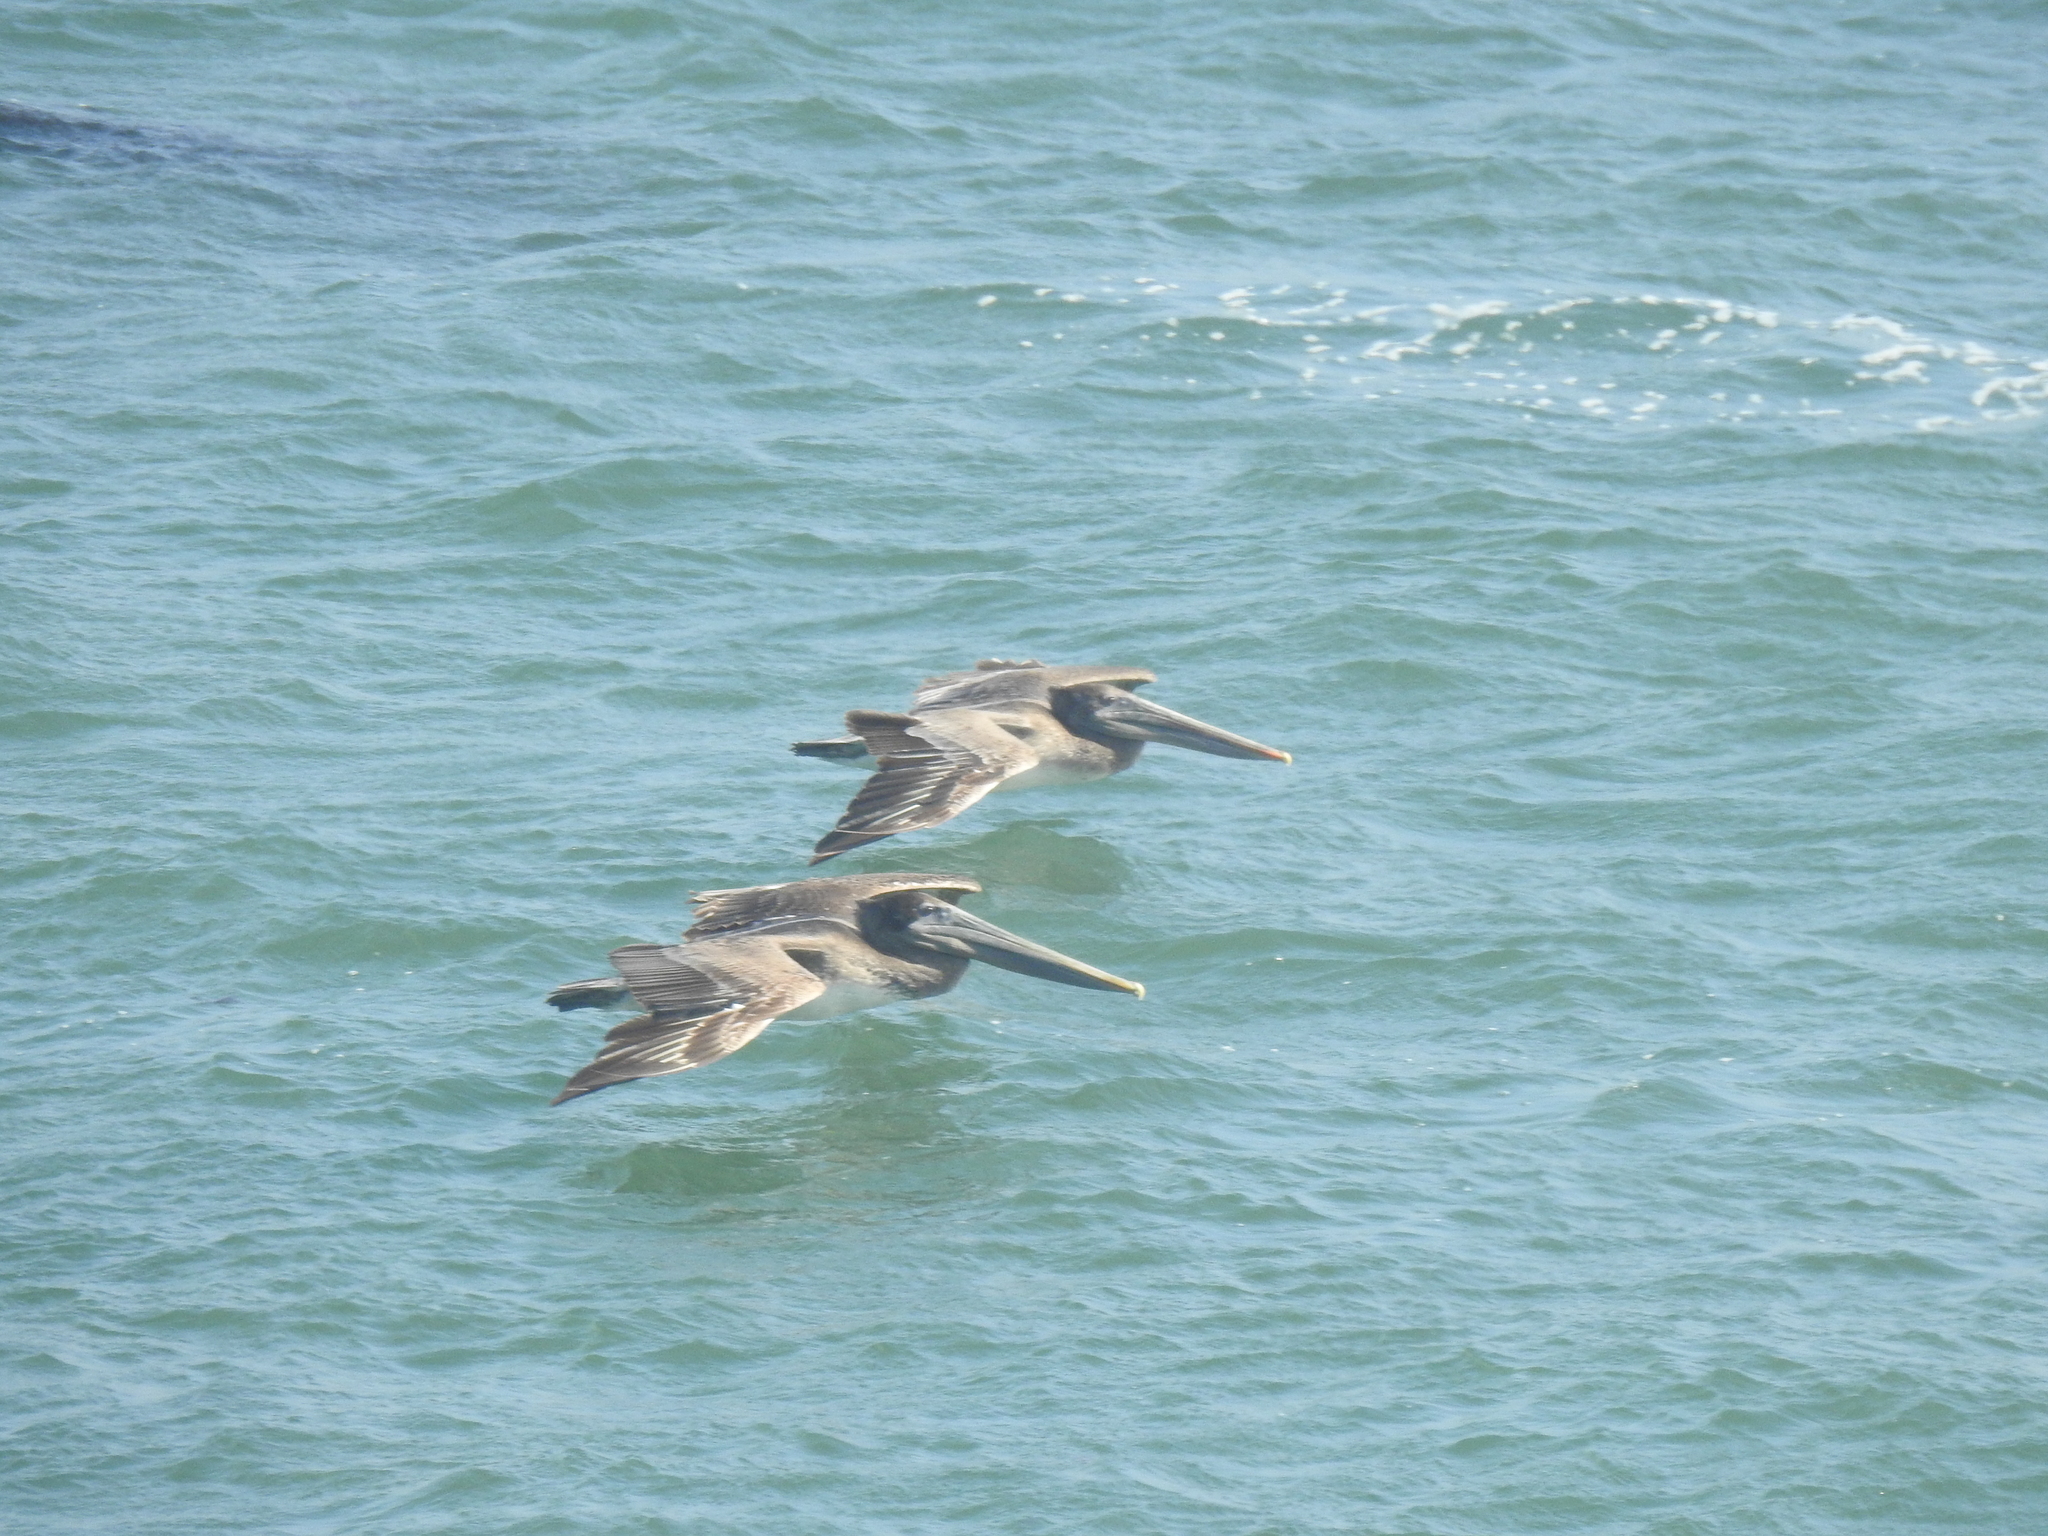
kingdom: Animalia
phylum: Chordata
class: Aves
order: Pelecaniformes
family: Pelecanidae
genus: Pelecanus
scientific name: Pelecanus occidentalis
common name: Brown pelican
